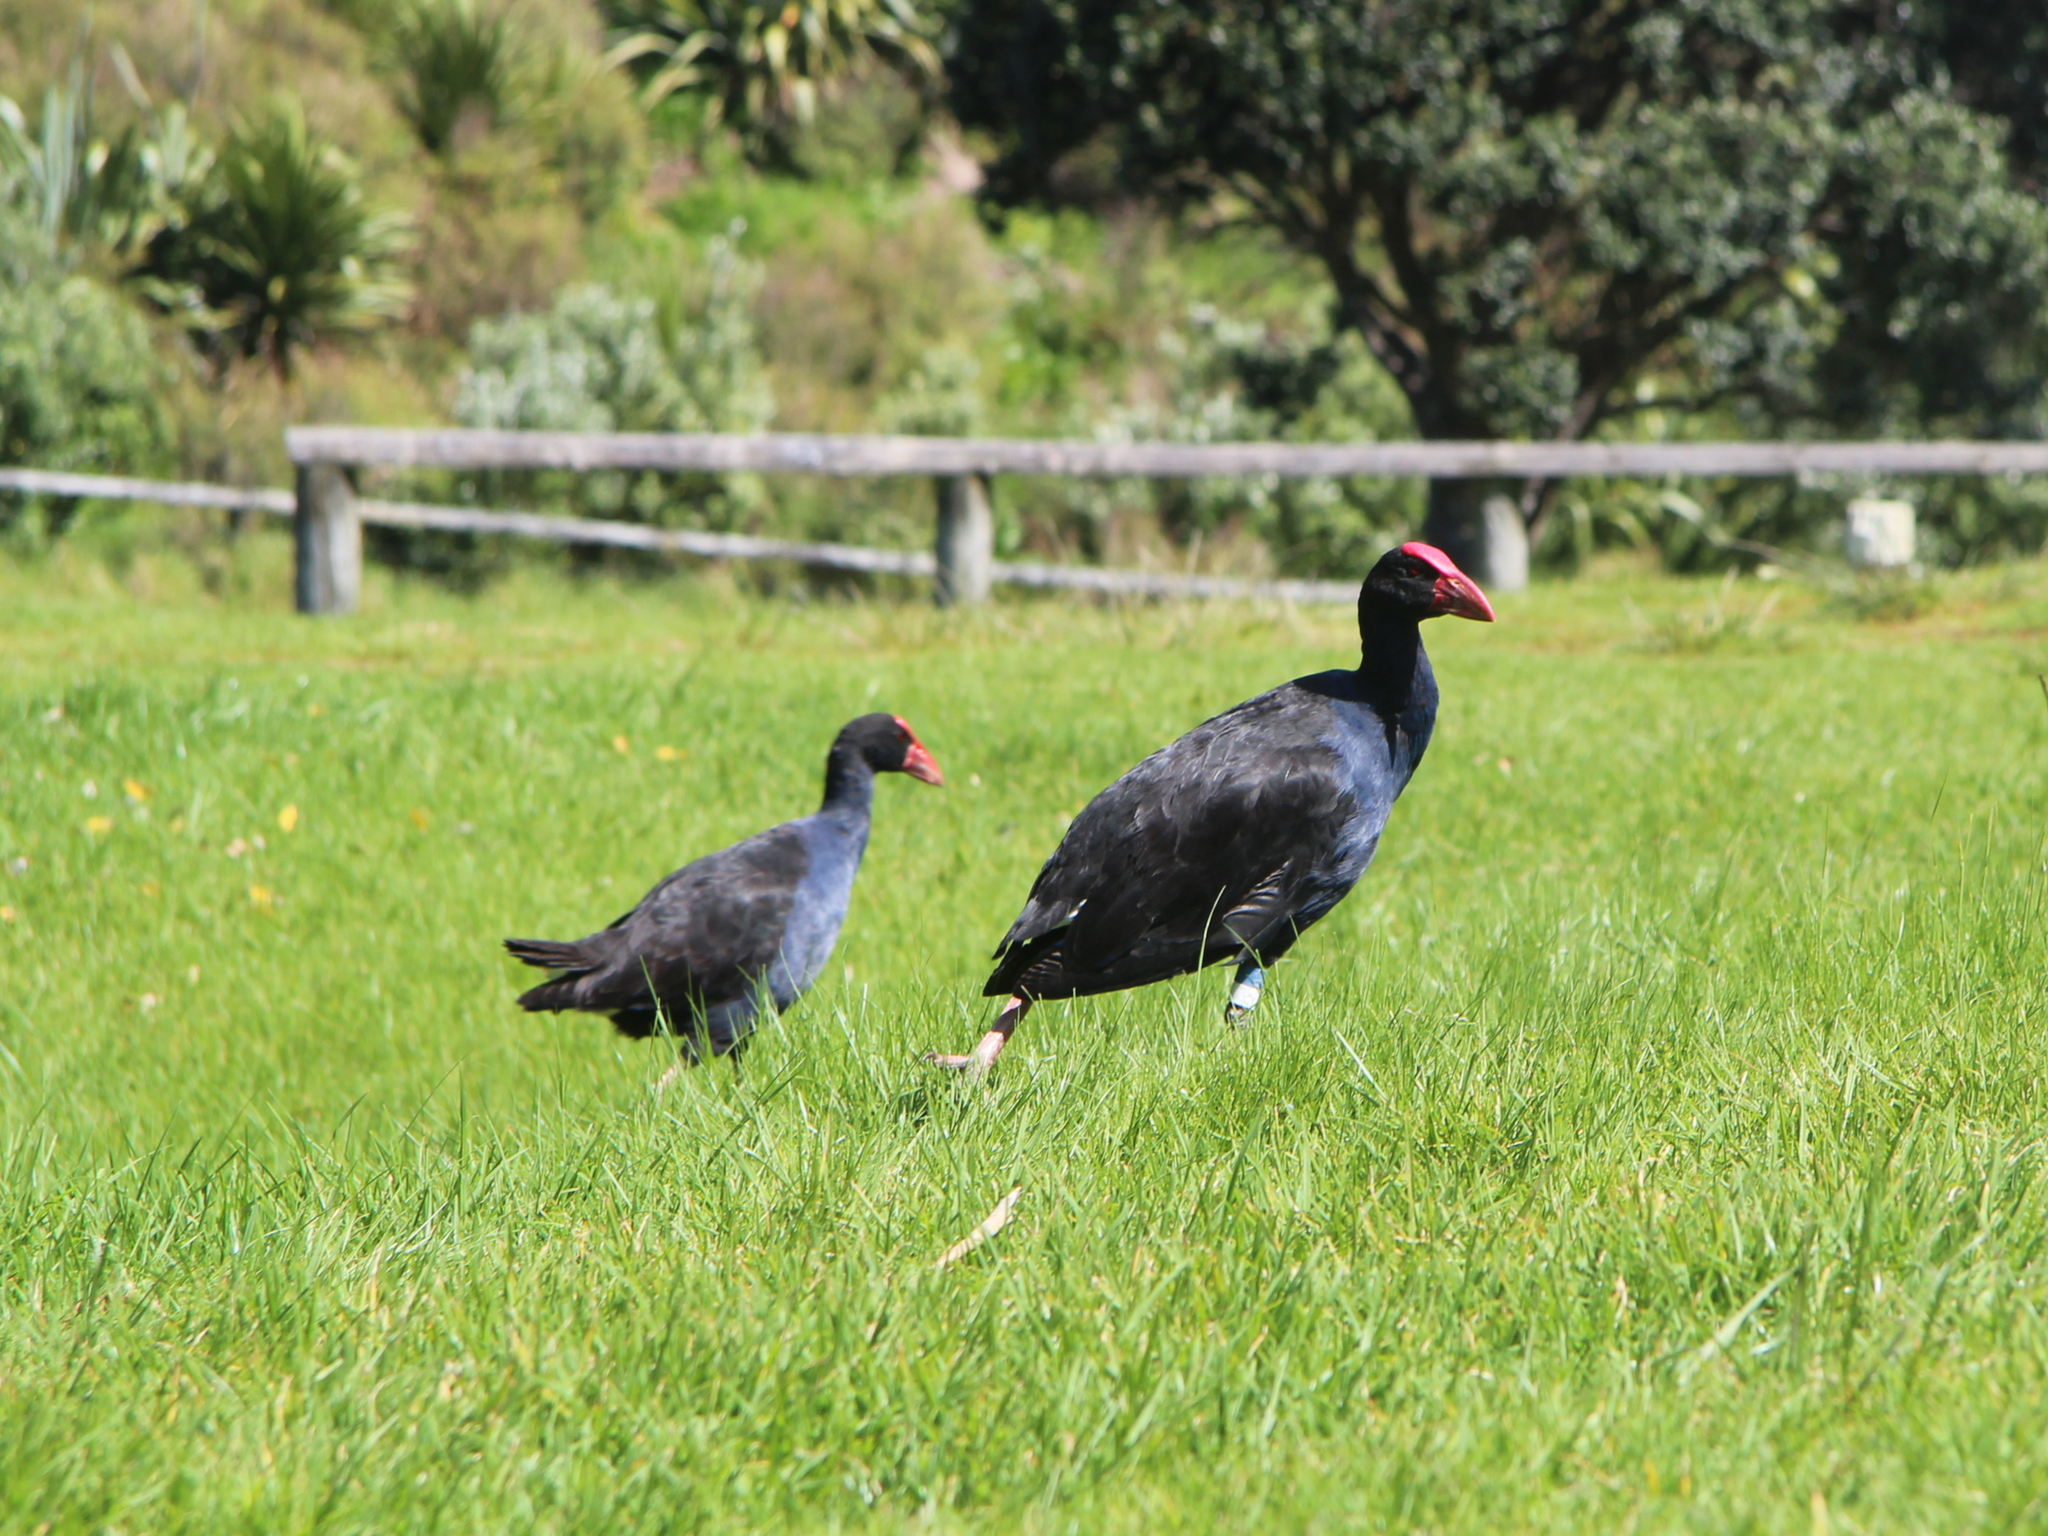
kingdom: Animalia
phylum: Chordata
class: Aves
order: Gruiformes
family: Rallidae
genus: Porphyrio
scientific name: Porphyrio melanotus
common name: Australasian swamphen
